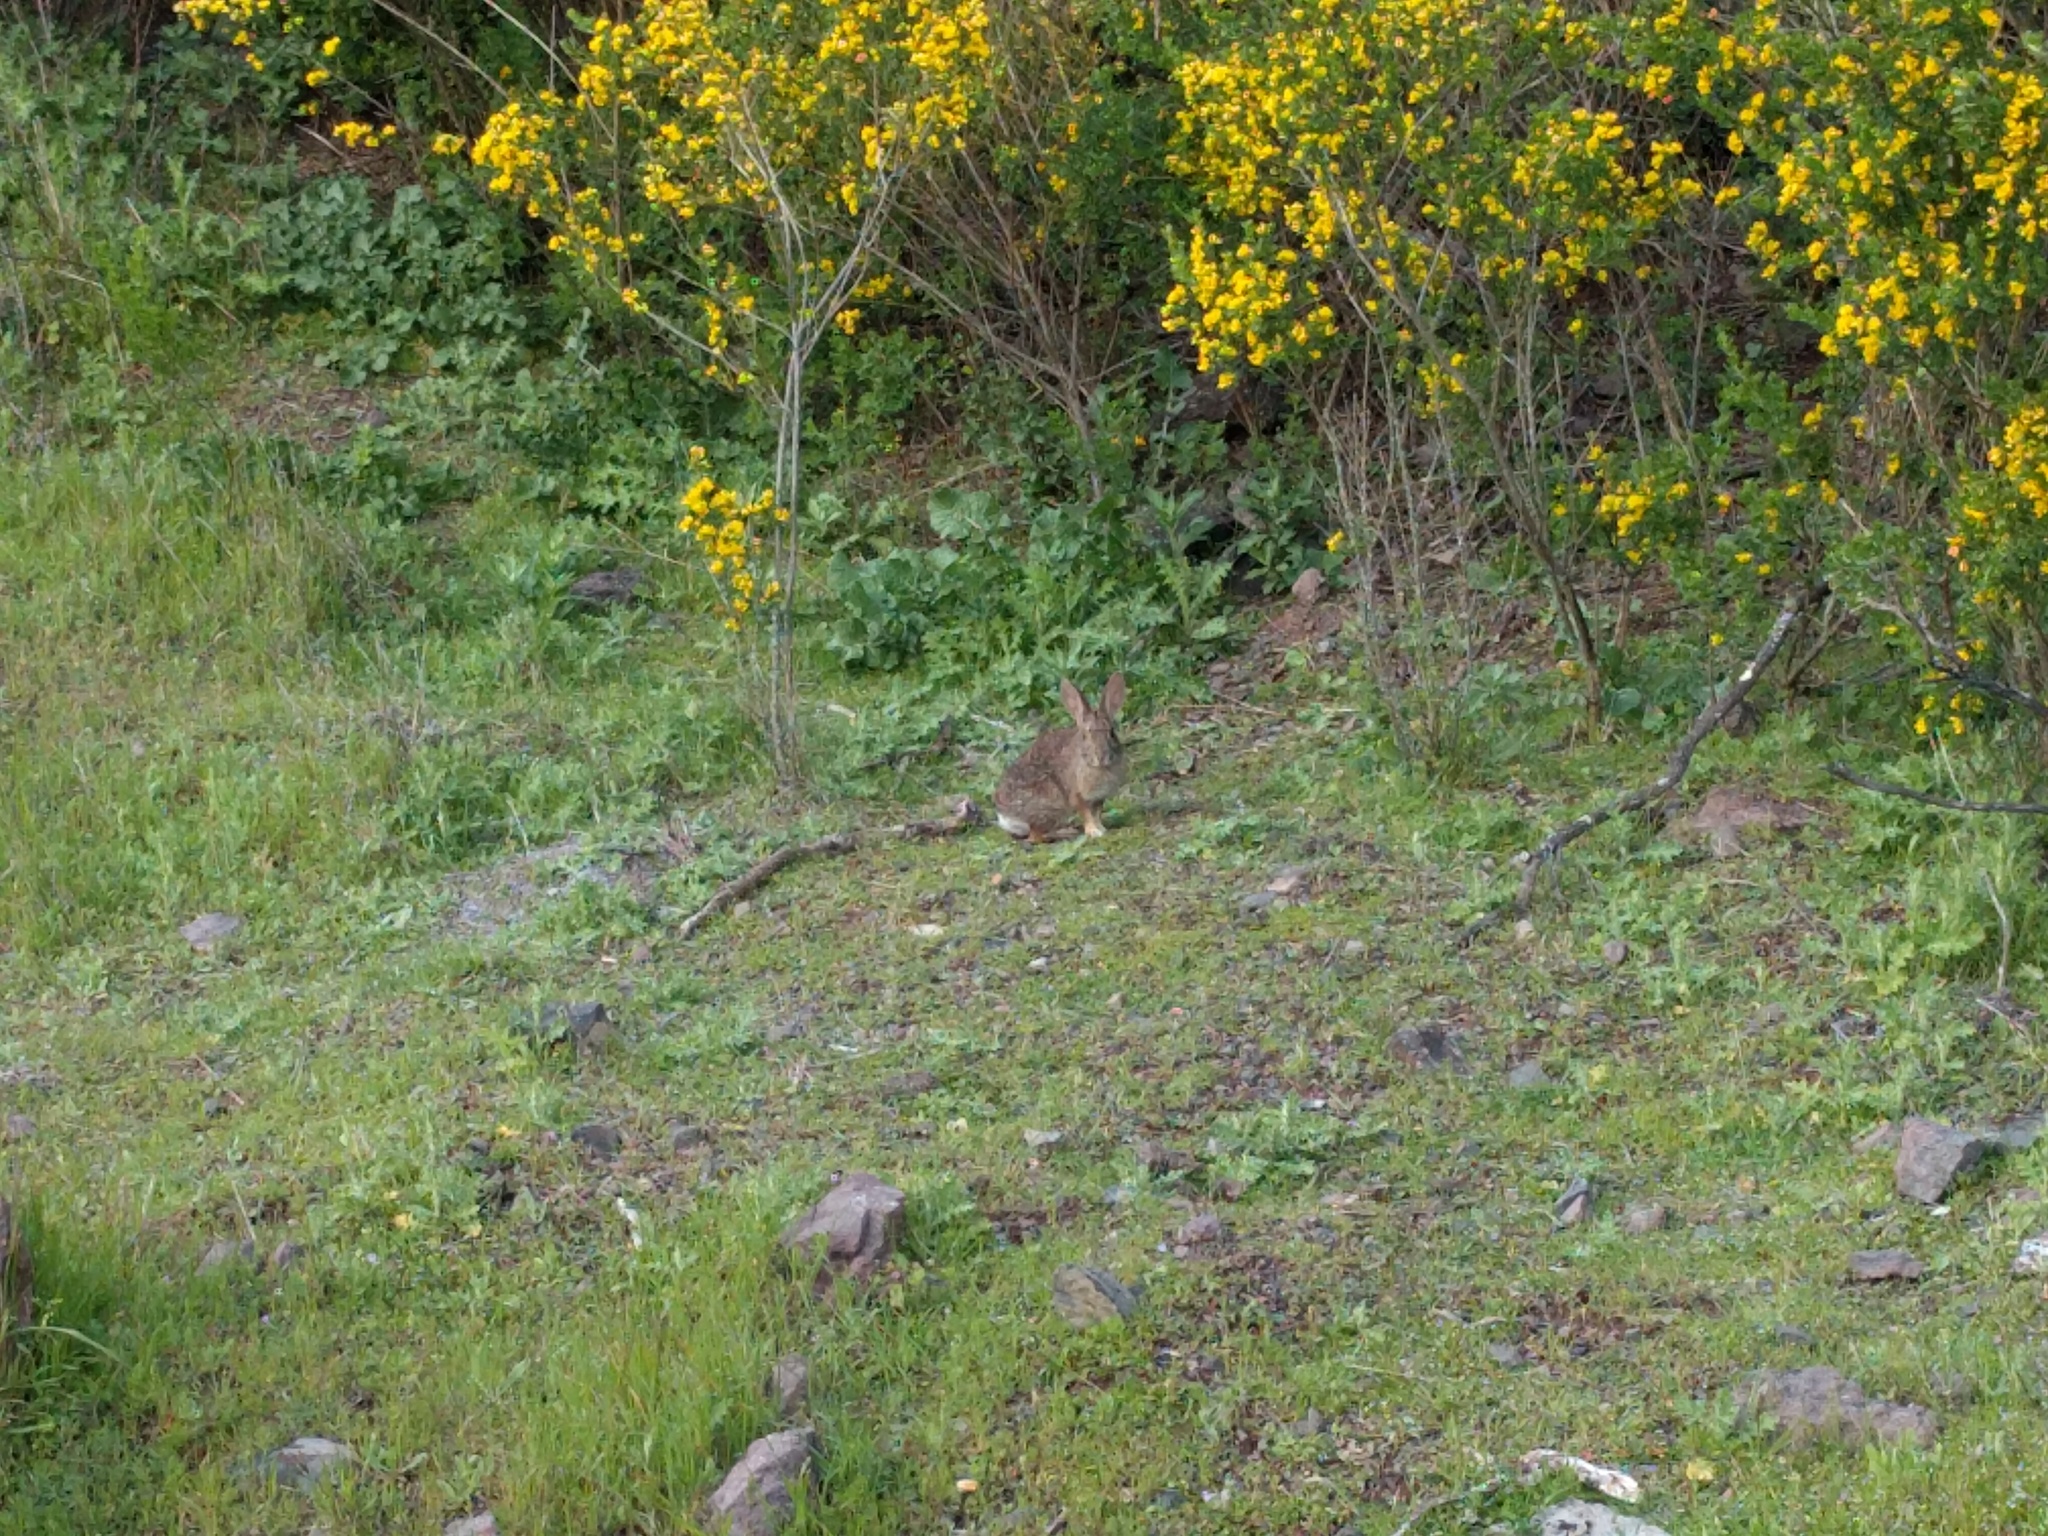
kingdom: Animalia
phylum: Chordata
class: Mammalia
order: Lagomorpha
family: Leporidae
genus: Sylvilagus
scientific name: Sylvilagus bachmani
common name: Brush rabbit
